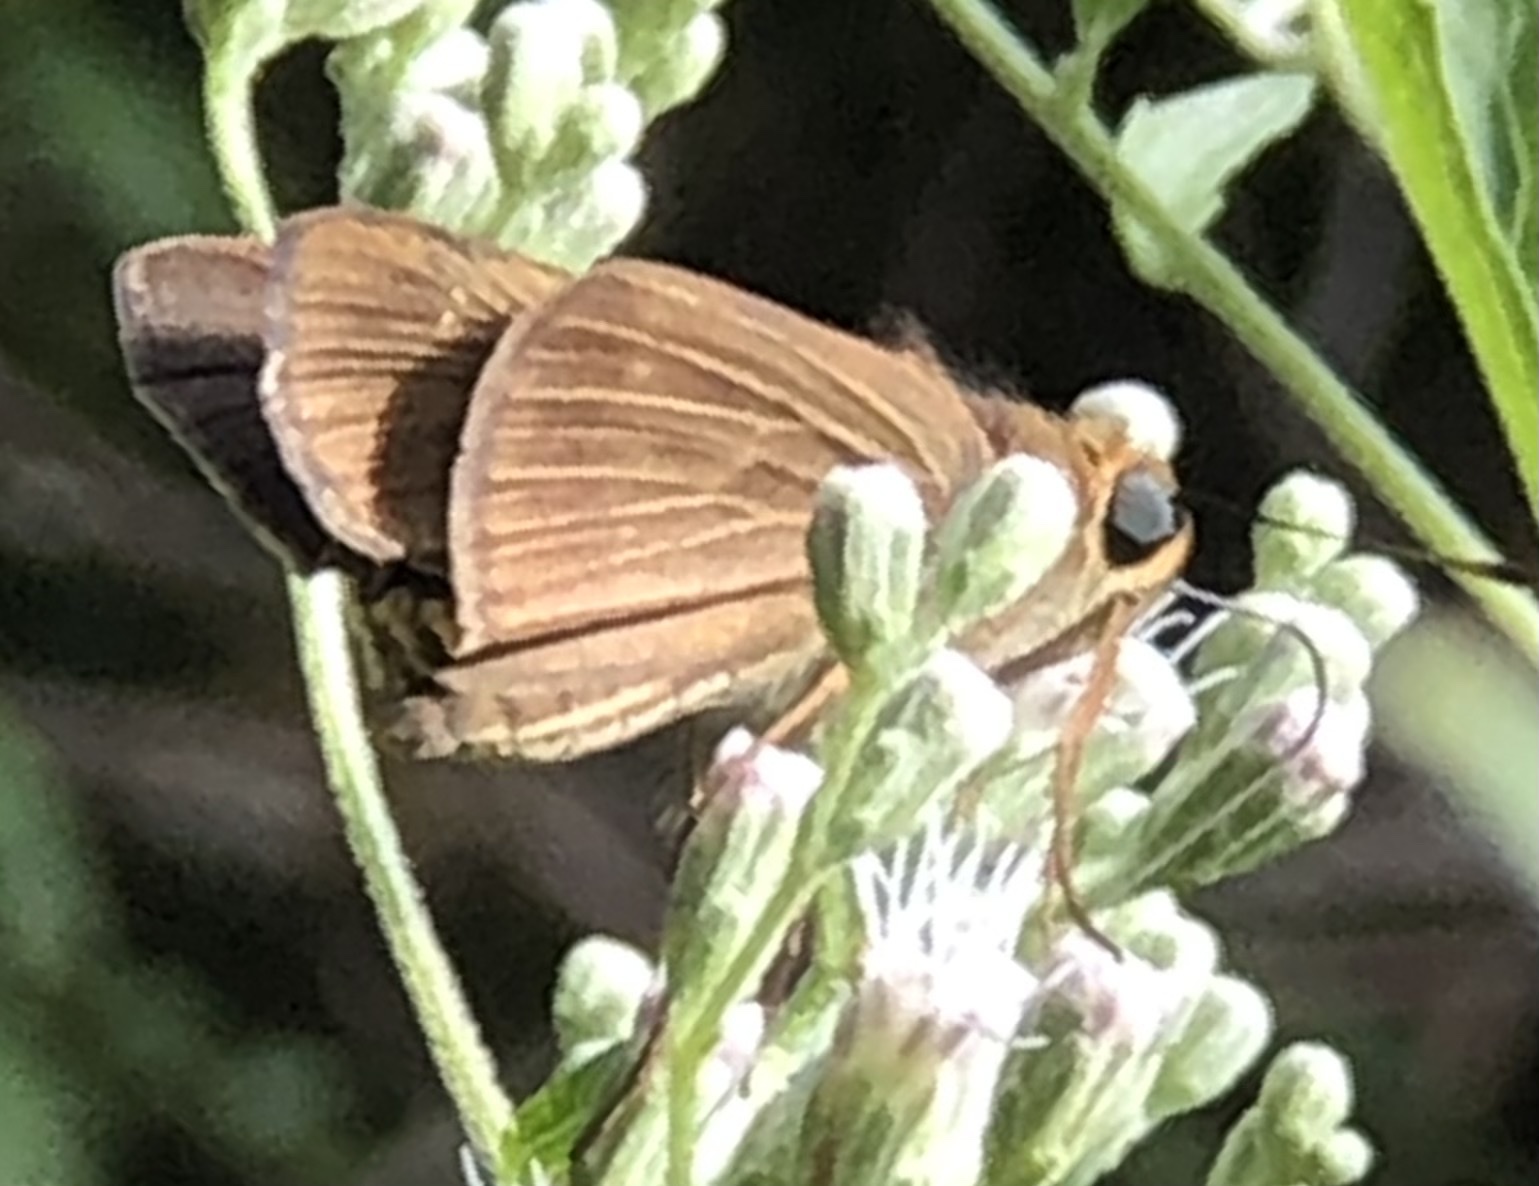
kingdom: Animalia
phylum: Arthropoda
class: Insecta
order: Lepidoptera
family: Hesperiidae
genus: Panoquina
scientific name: Panoquina ocola
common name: Ocola skipper
